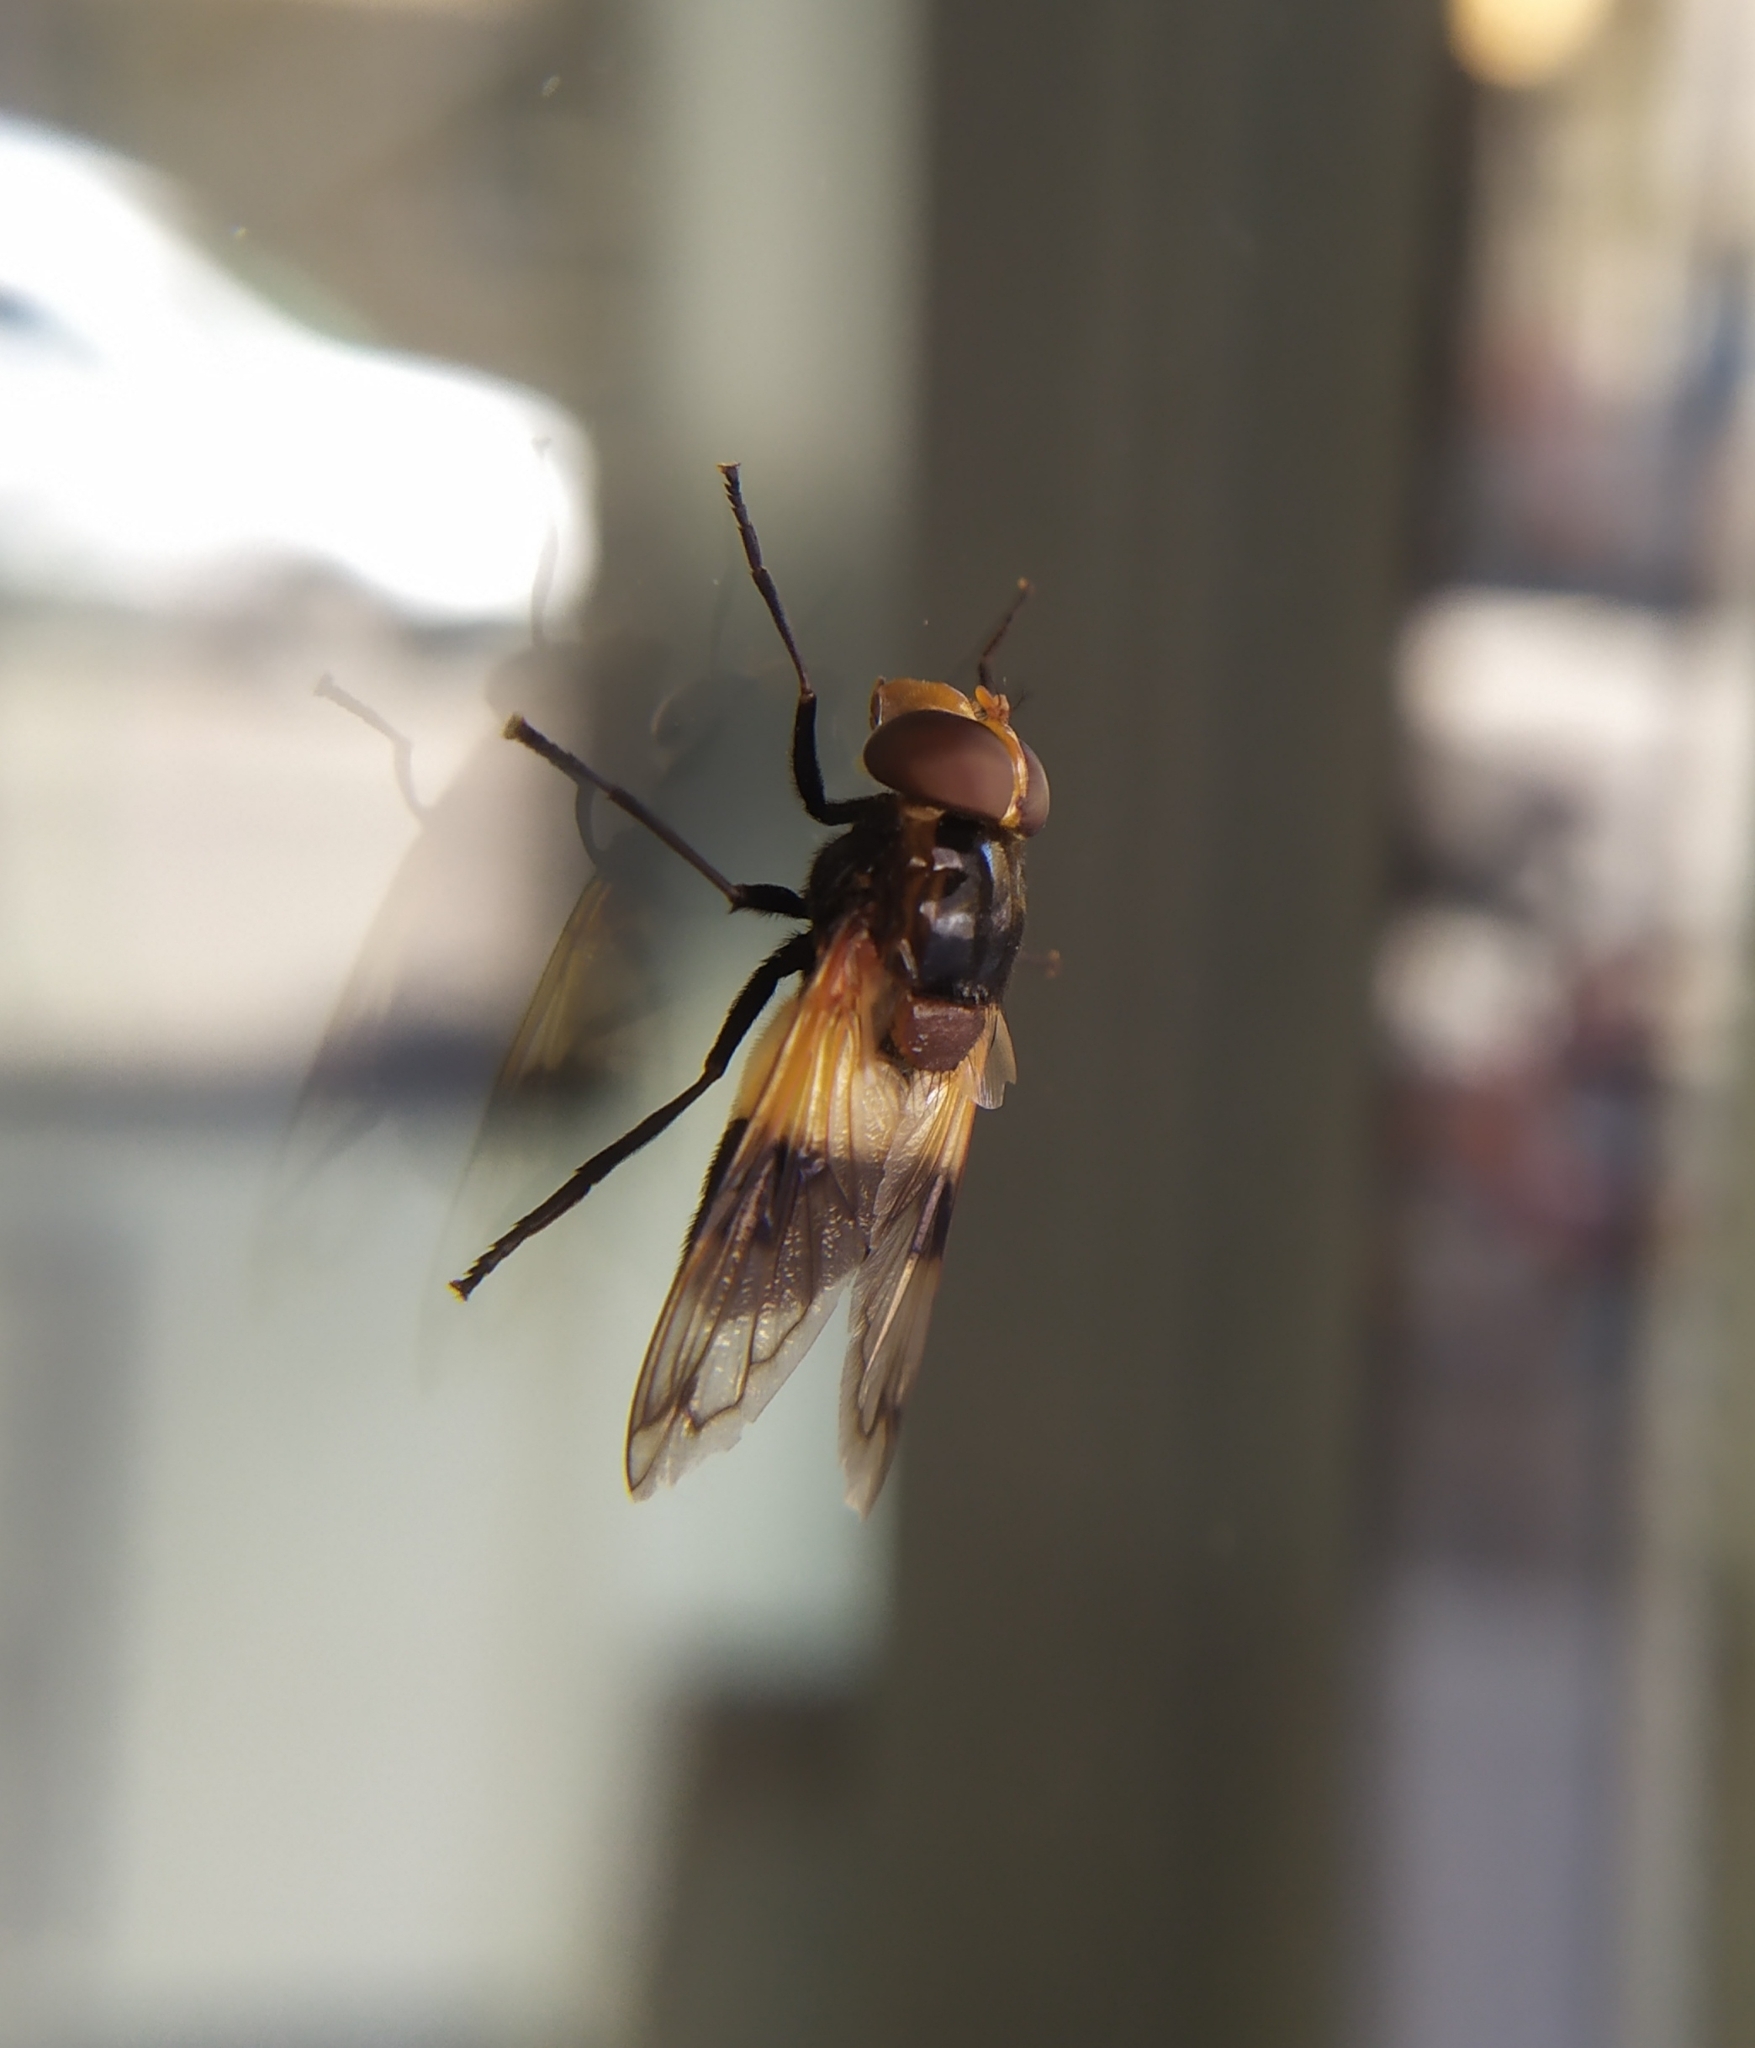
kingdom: Animalia
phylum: Arthropoda
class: Insecta
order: Diptera
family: Syrphidae
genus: Volucella
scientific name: Volucella pellucens
